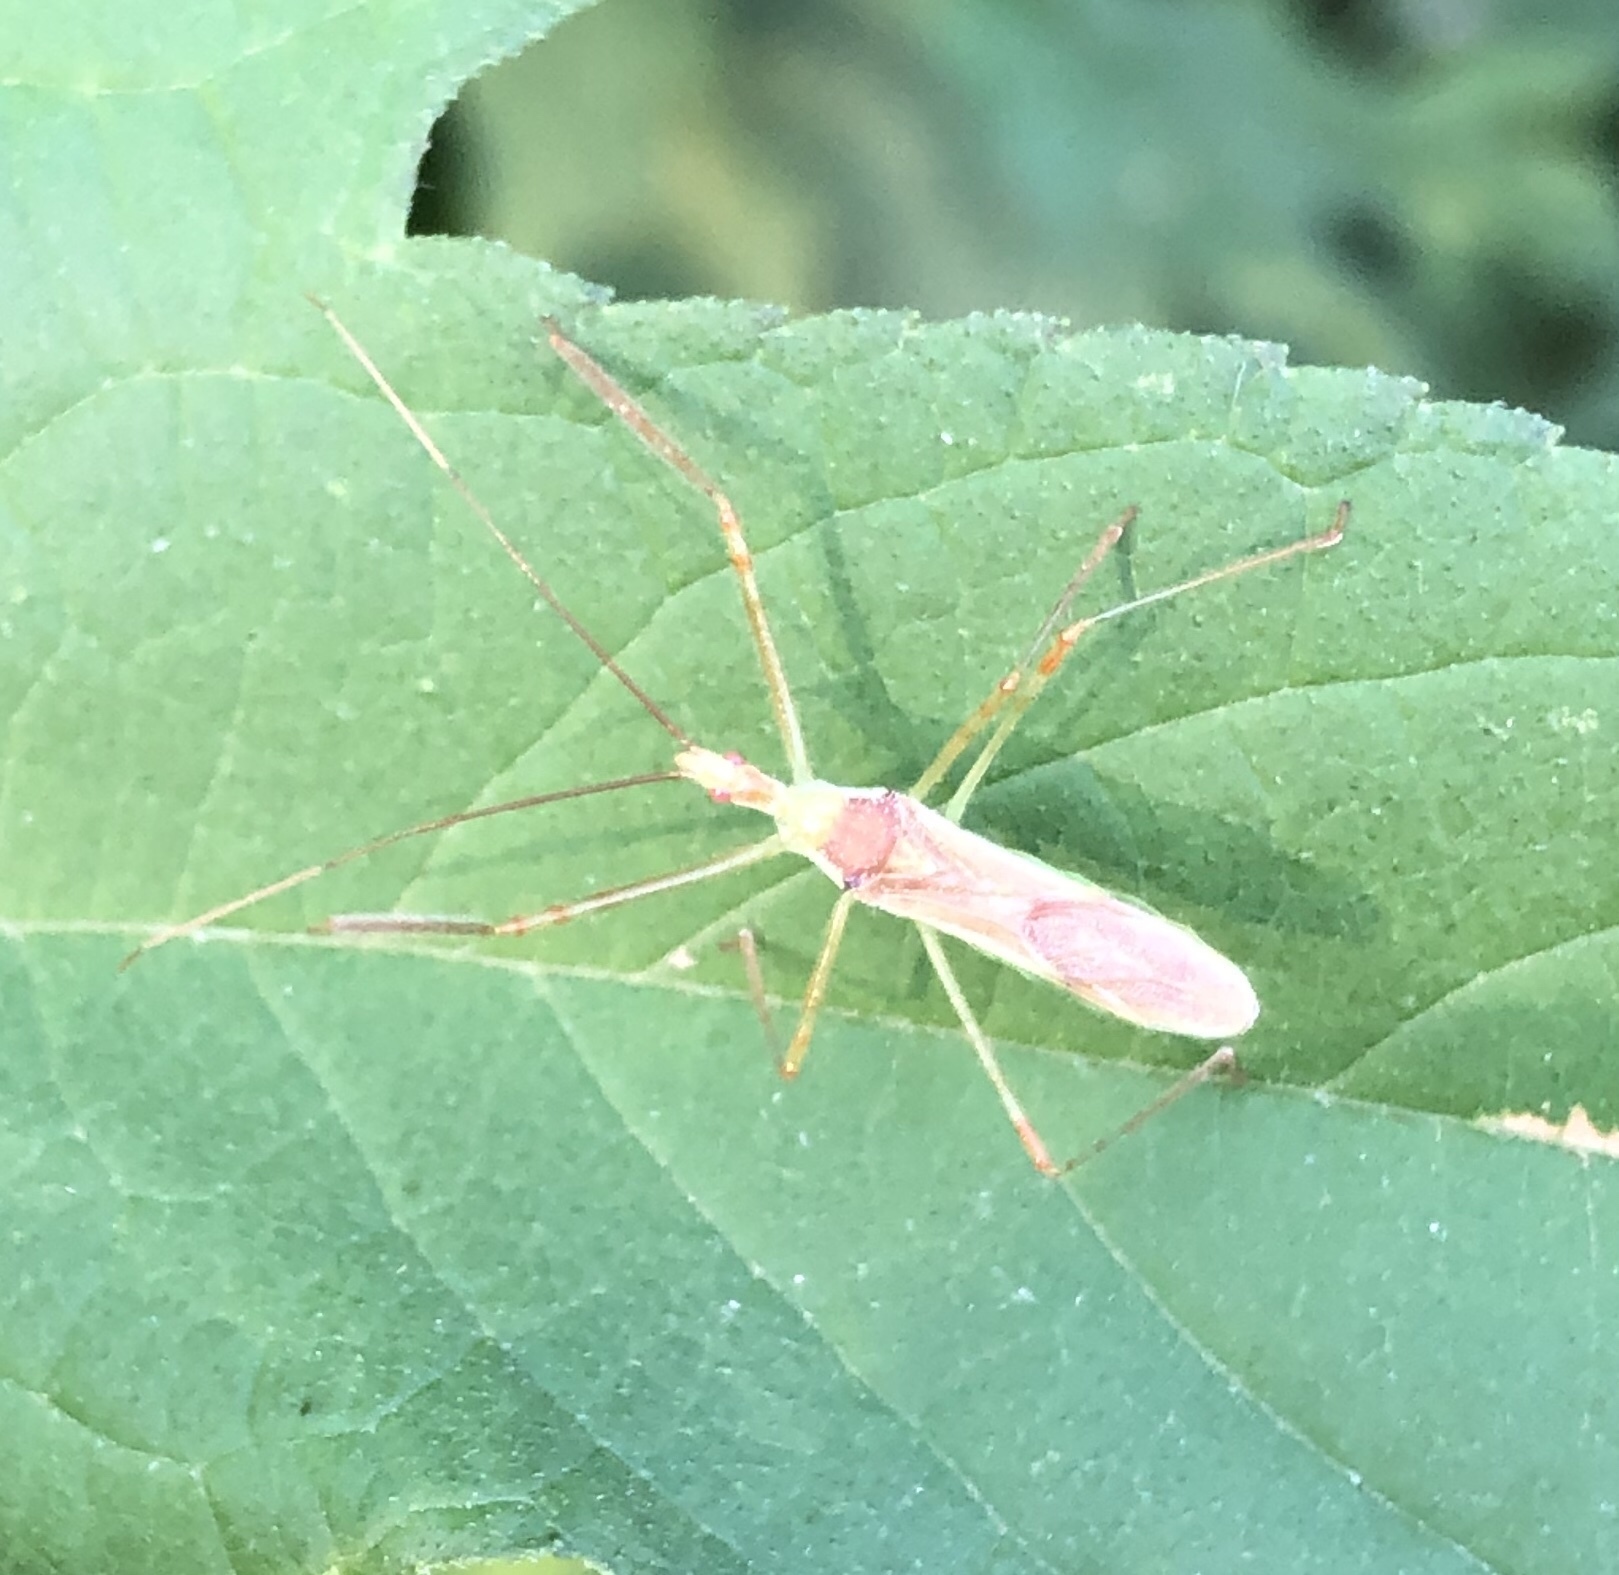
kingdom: Animalia
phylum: Arthropoda
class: Insecta
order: Hemiptera
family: Reduviidae
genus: Zelus
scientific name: Zelus luridus
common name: Pale green assassin bug
